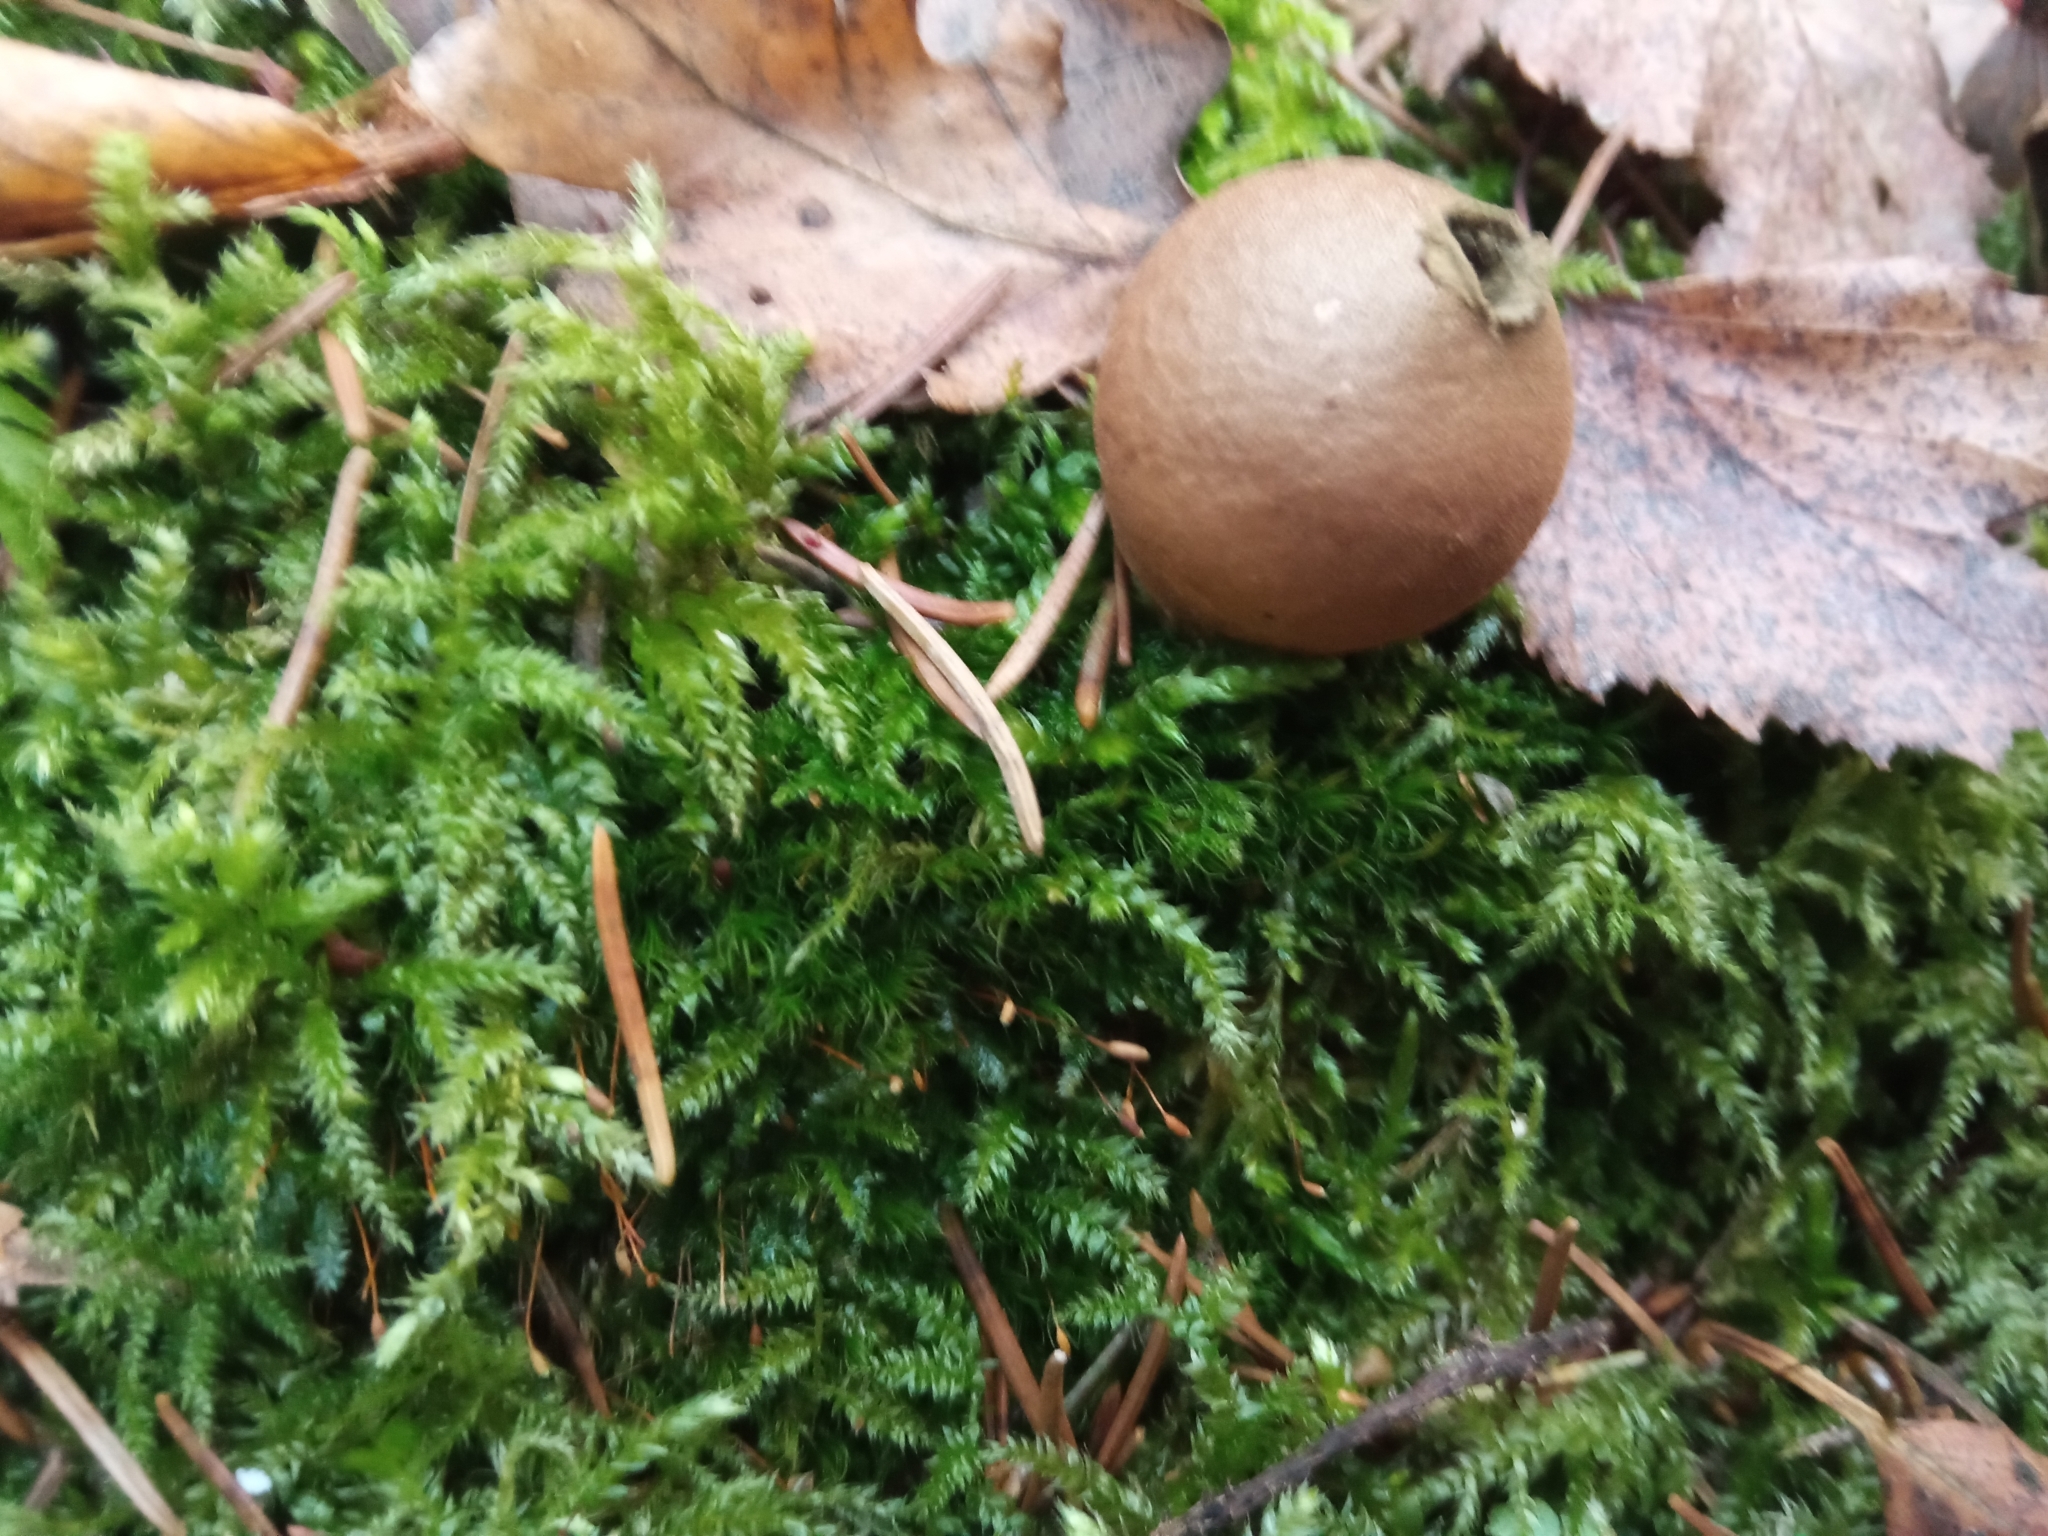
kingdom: Fungi
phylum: Basidiomycota
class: Agaricomycetes
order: Agaricales
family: Lycoperdaceae
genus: Apioperdon
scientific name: Apioperdon pyriforme
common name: Pear-shaped puffball
